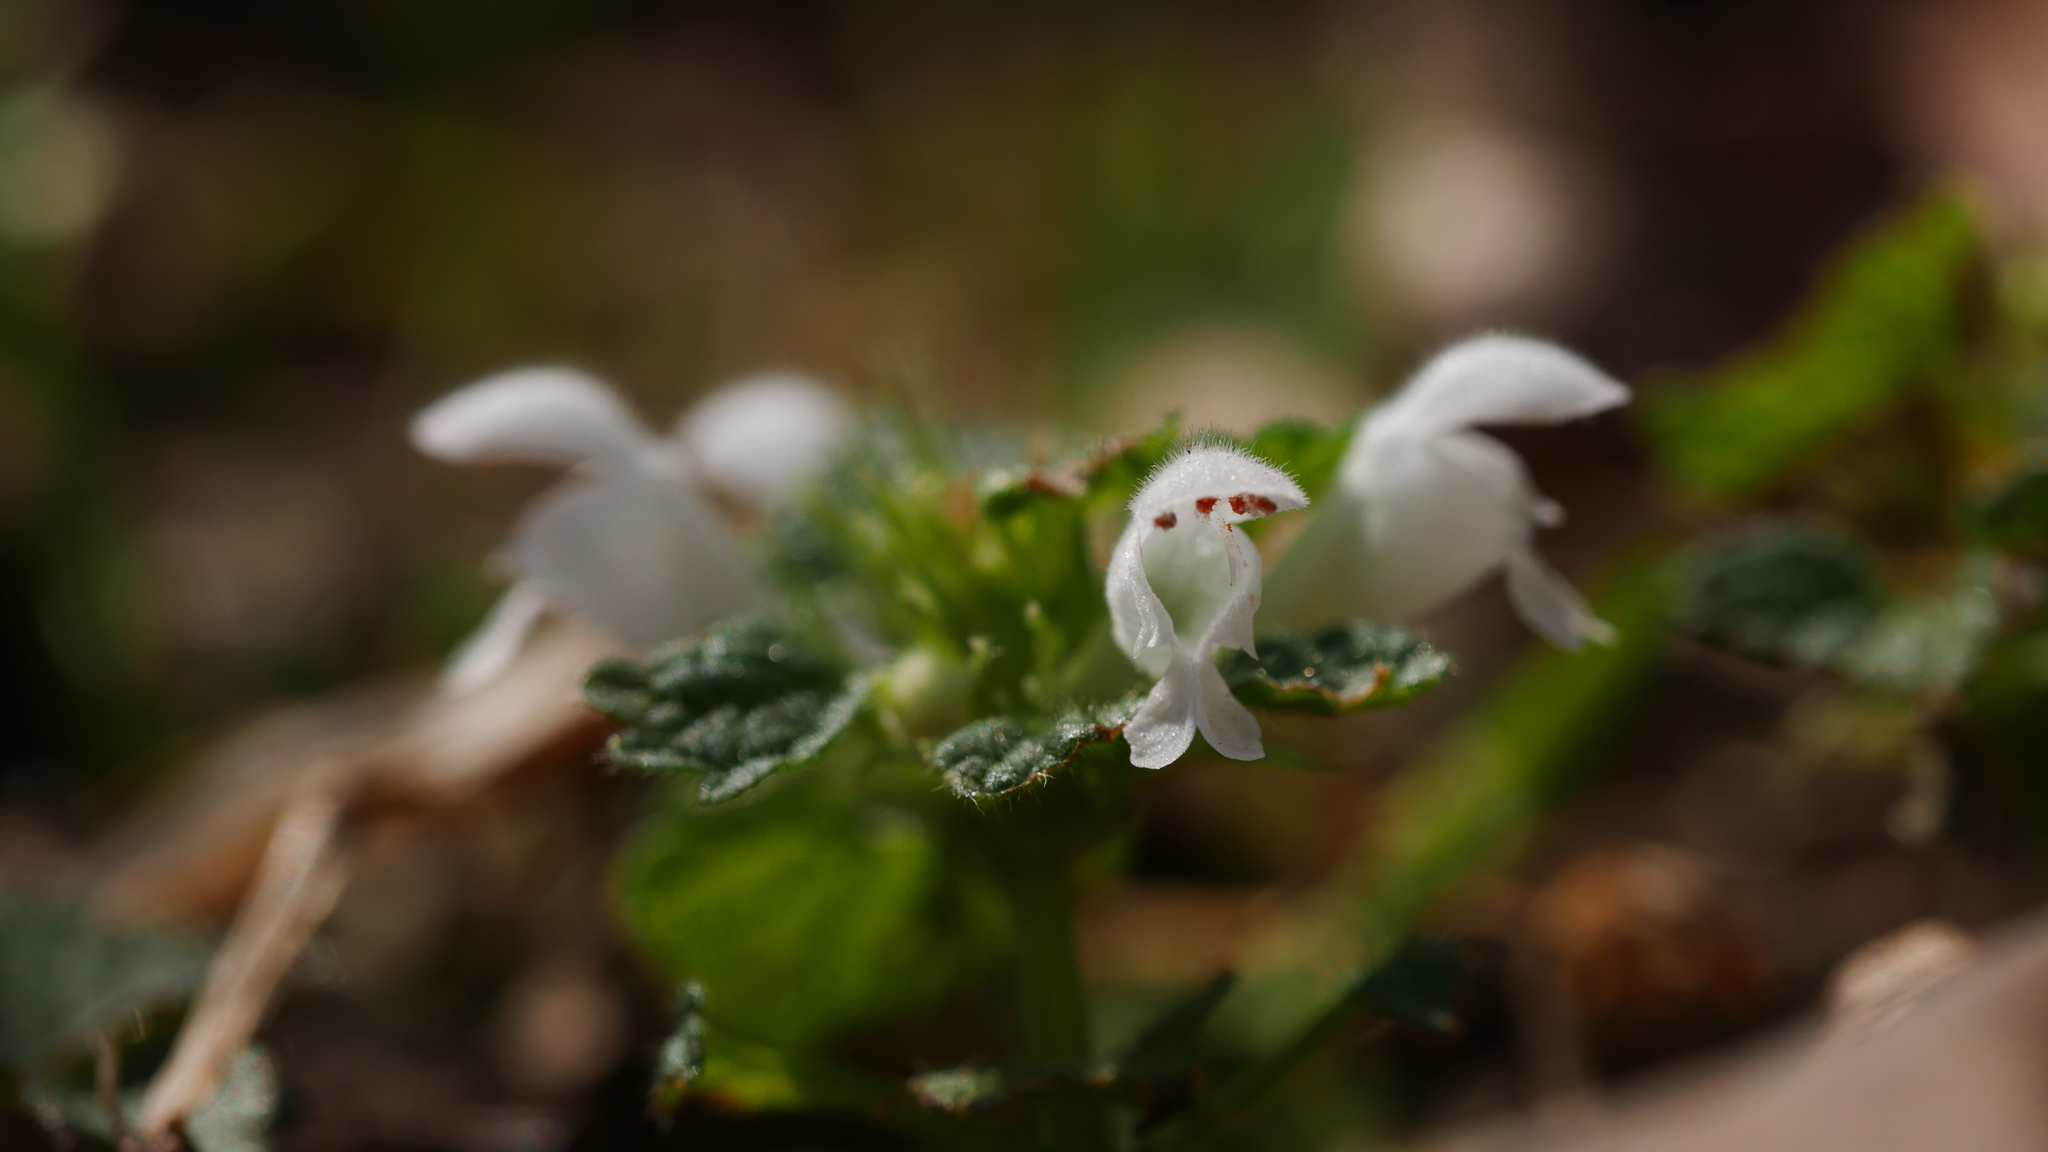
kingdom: Plantae
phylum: Tracheophyta
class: Magnoliopsida
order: Lamiales
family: Lamiaceae
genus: Lamium
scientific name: Lamium purpureum
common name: Red dead-nettle
